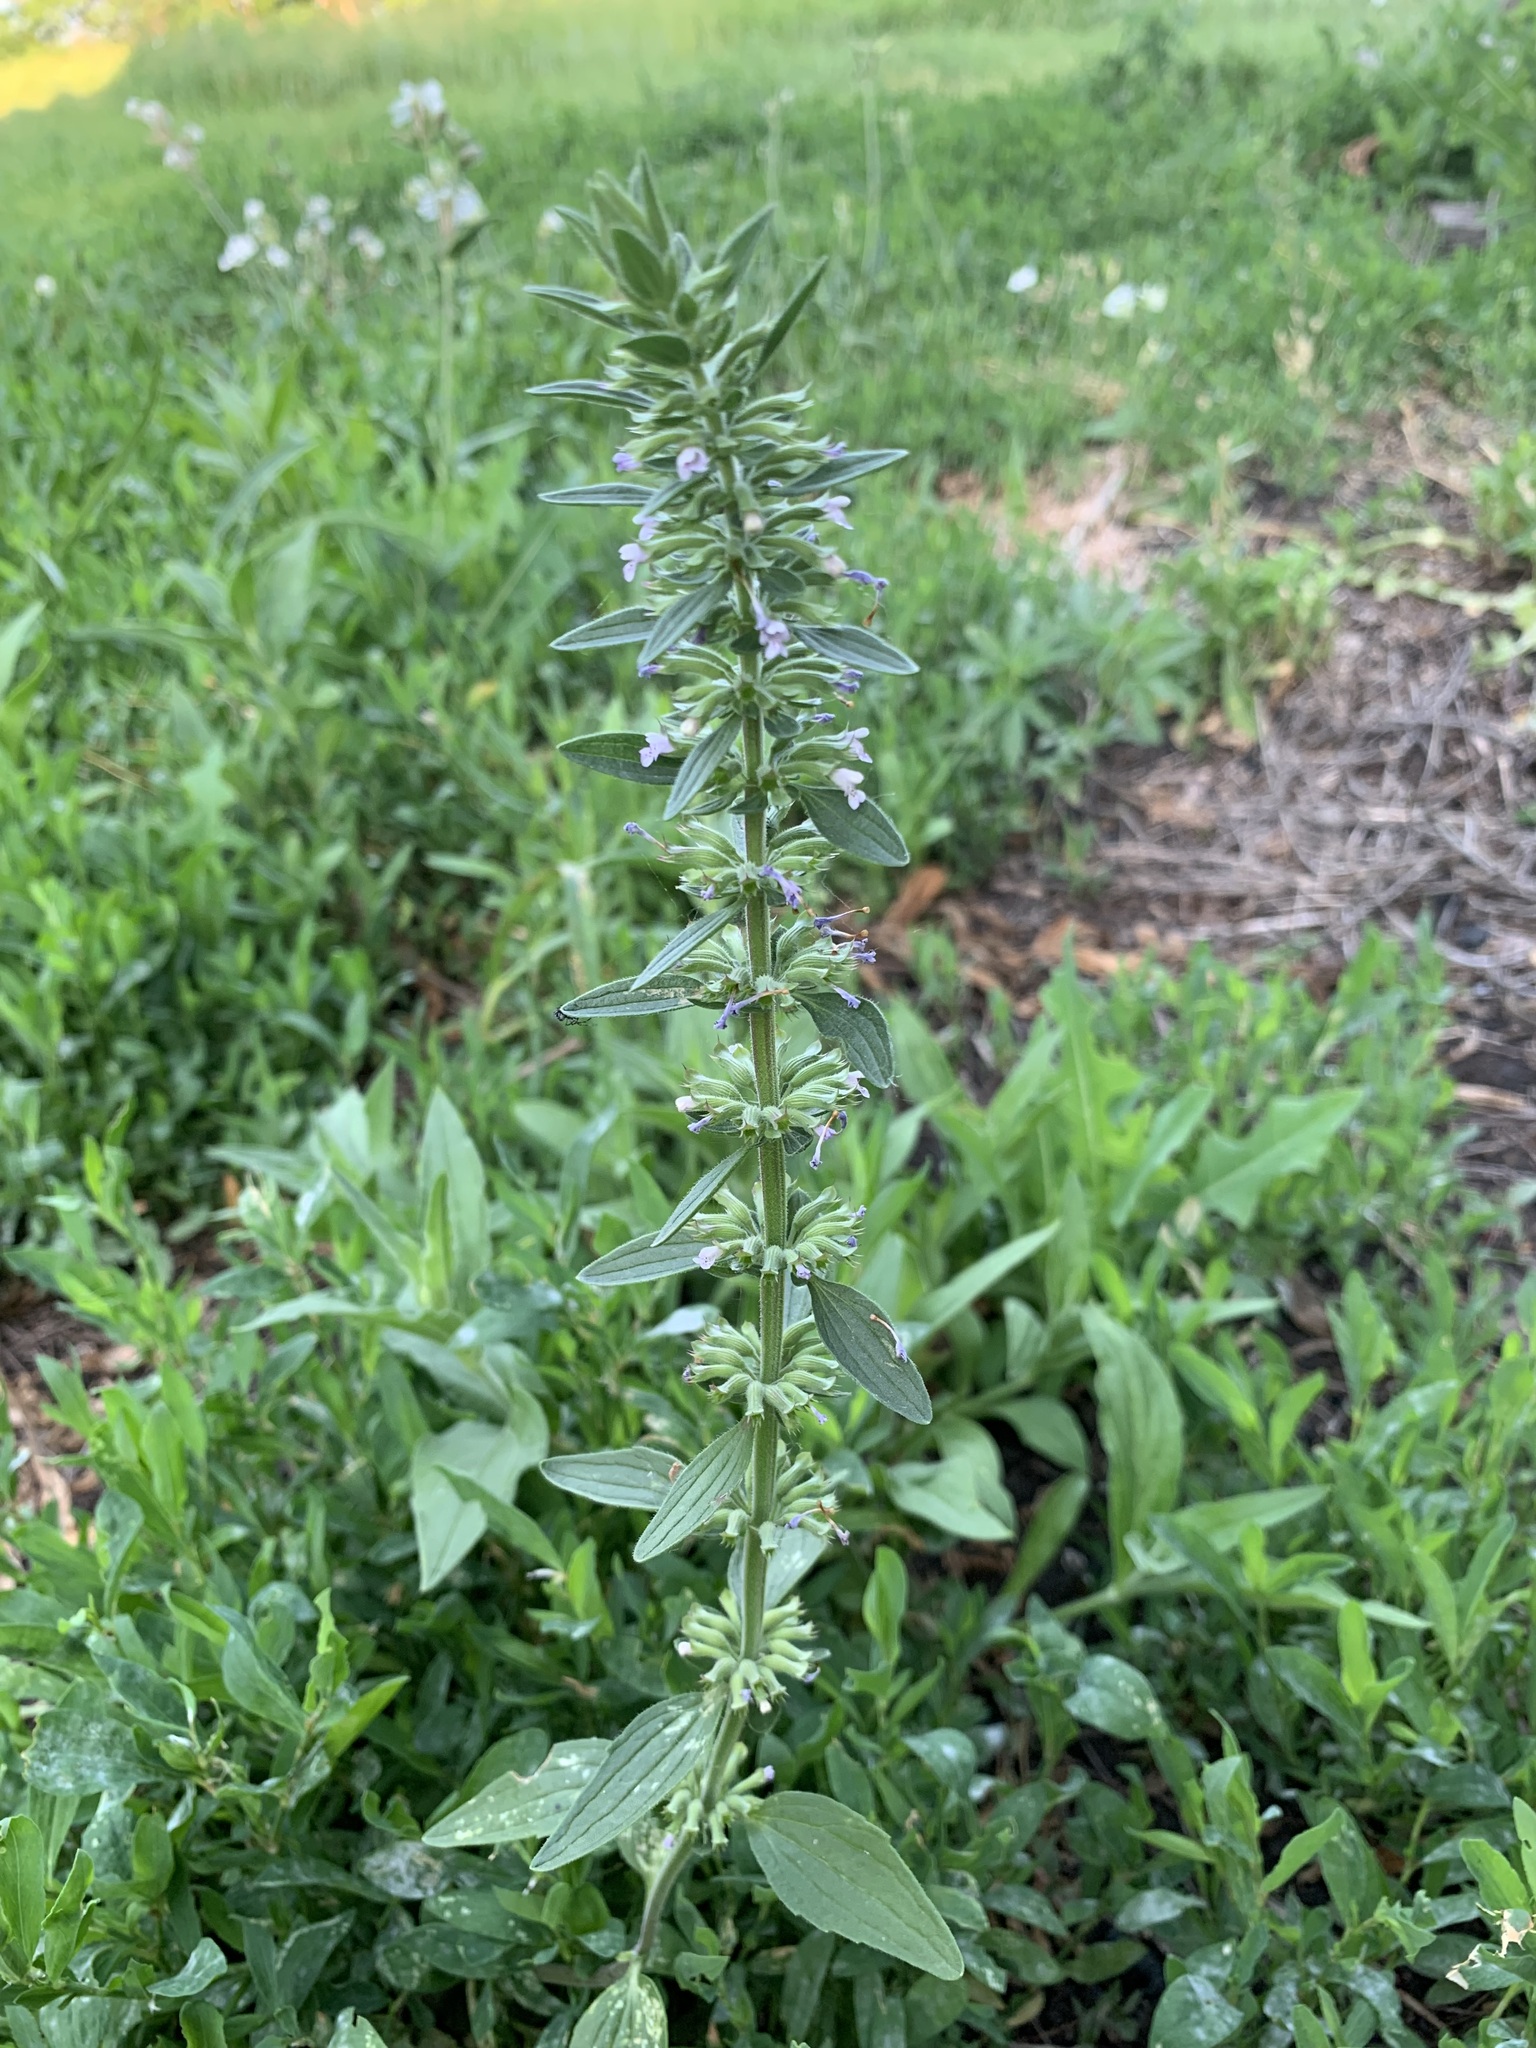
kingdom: Plantae
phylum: Tracheophyta
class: Magnoliopsida
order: Lamiales
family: Lamiaceae
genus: Dracocephalum
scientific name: Dracocephalum thymiflorum
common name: Thymeleaf dragonhead
